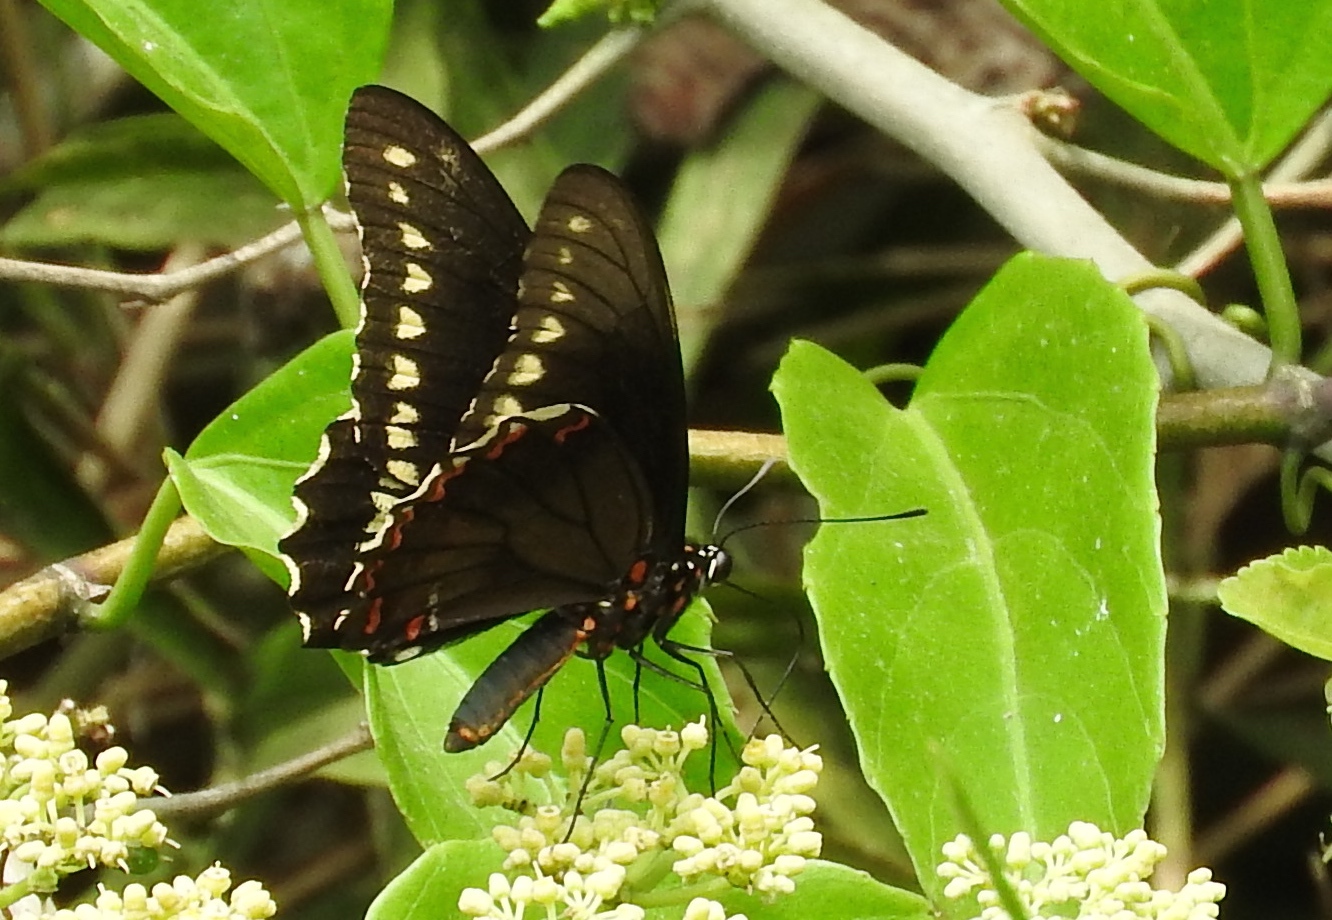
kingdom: Animalia
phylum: Arthropoda
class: Insecta
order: Lepidoptera
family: Papilionidae
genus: Battus
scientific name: Battus polydamas
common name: Polydamas swallowtail
